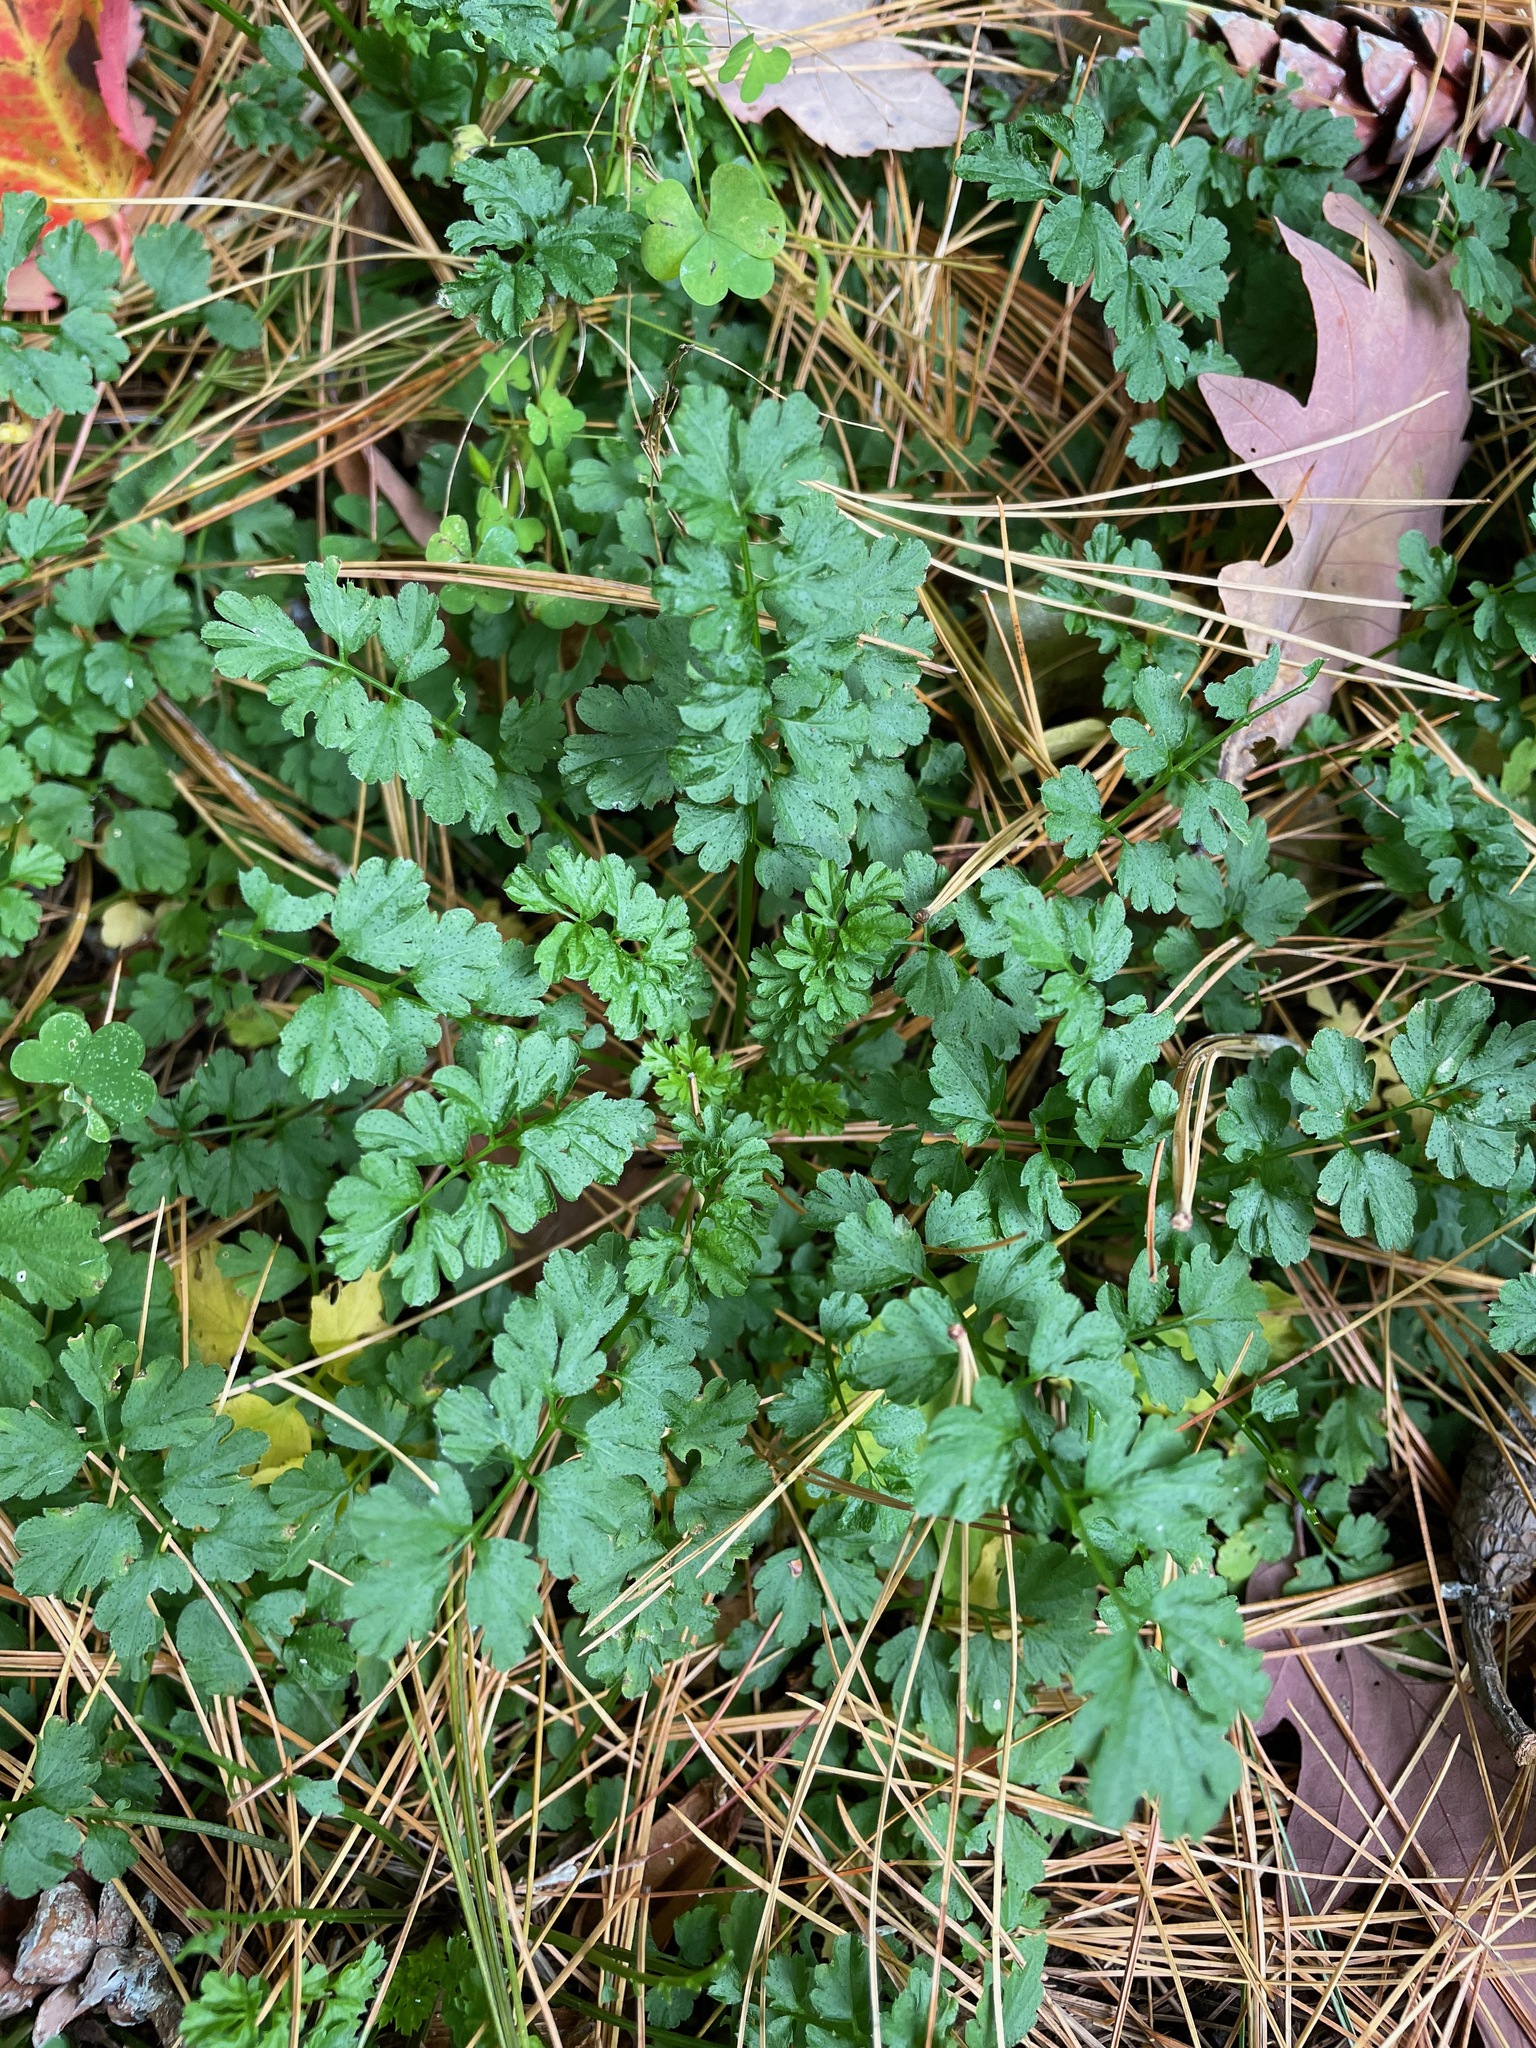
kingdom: Plantae
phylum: Tracheophyta
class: Magnoliopsida
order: Brassicales
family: Brassicaceae
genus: Cardamine
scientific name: Cardamine impatiens
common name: Narrow-leaved bitter-cress
